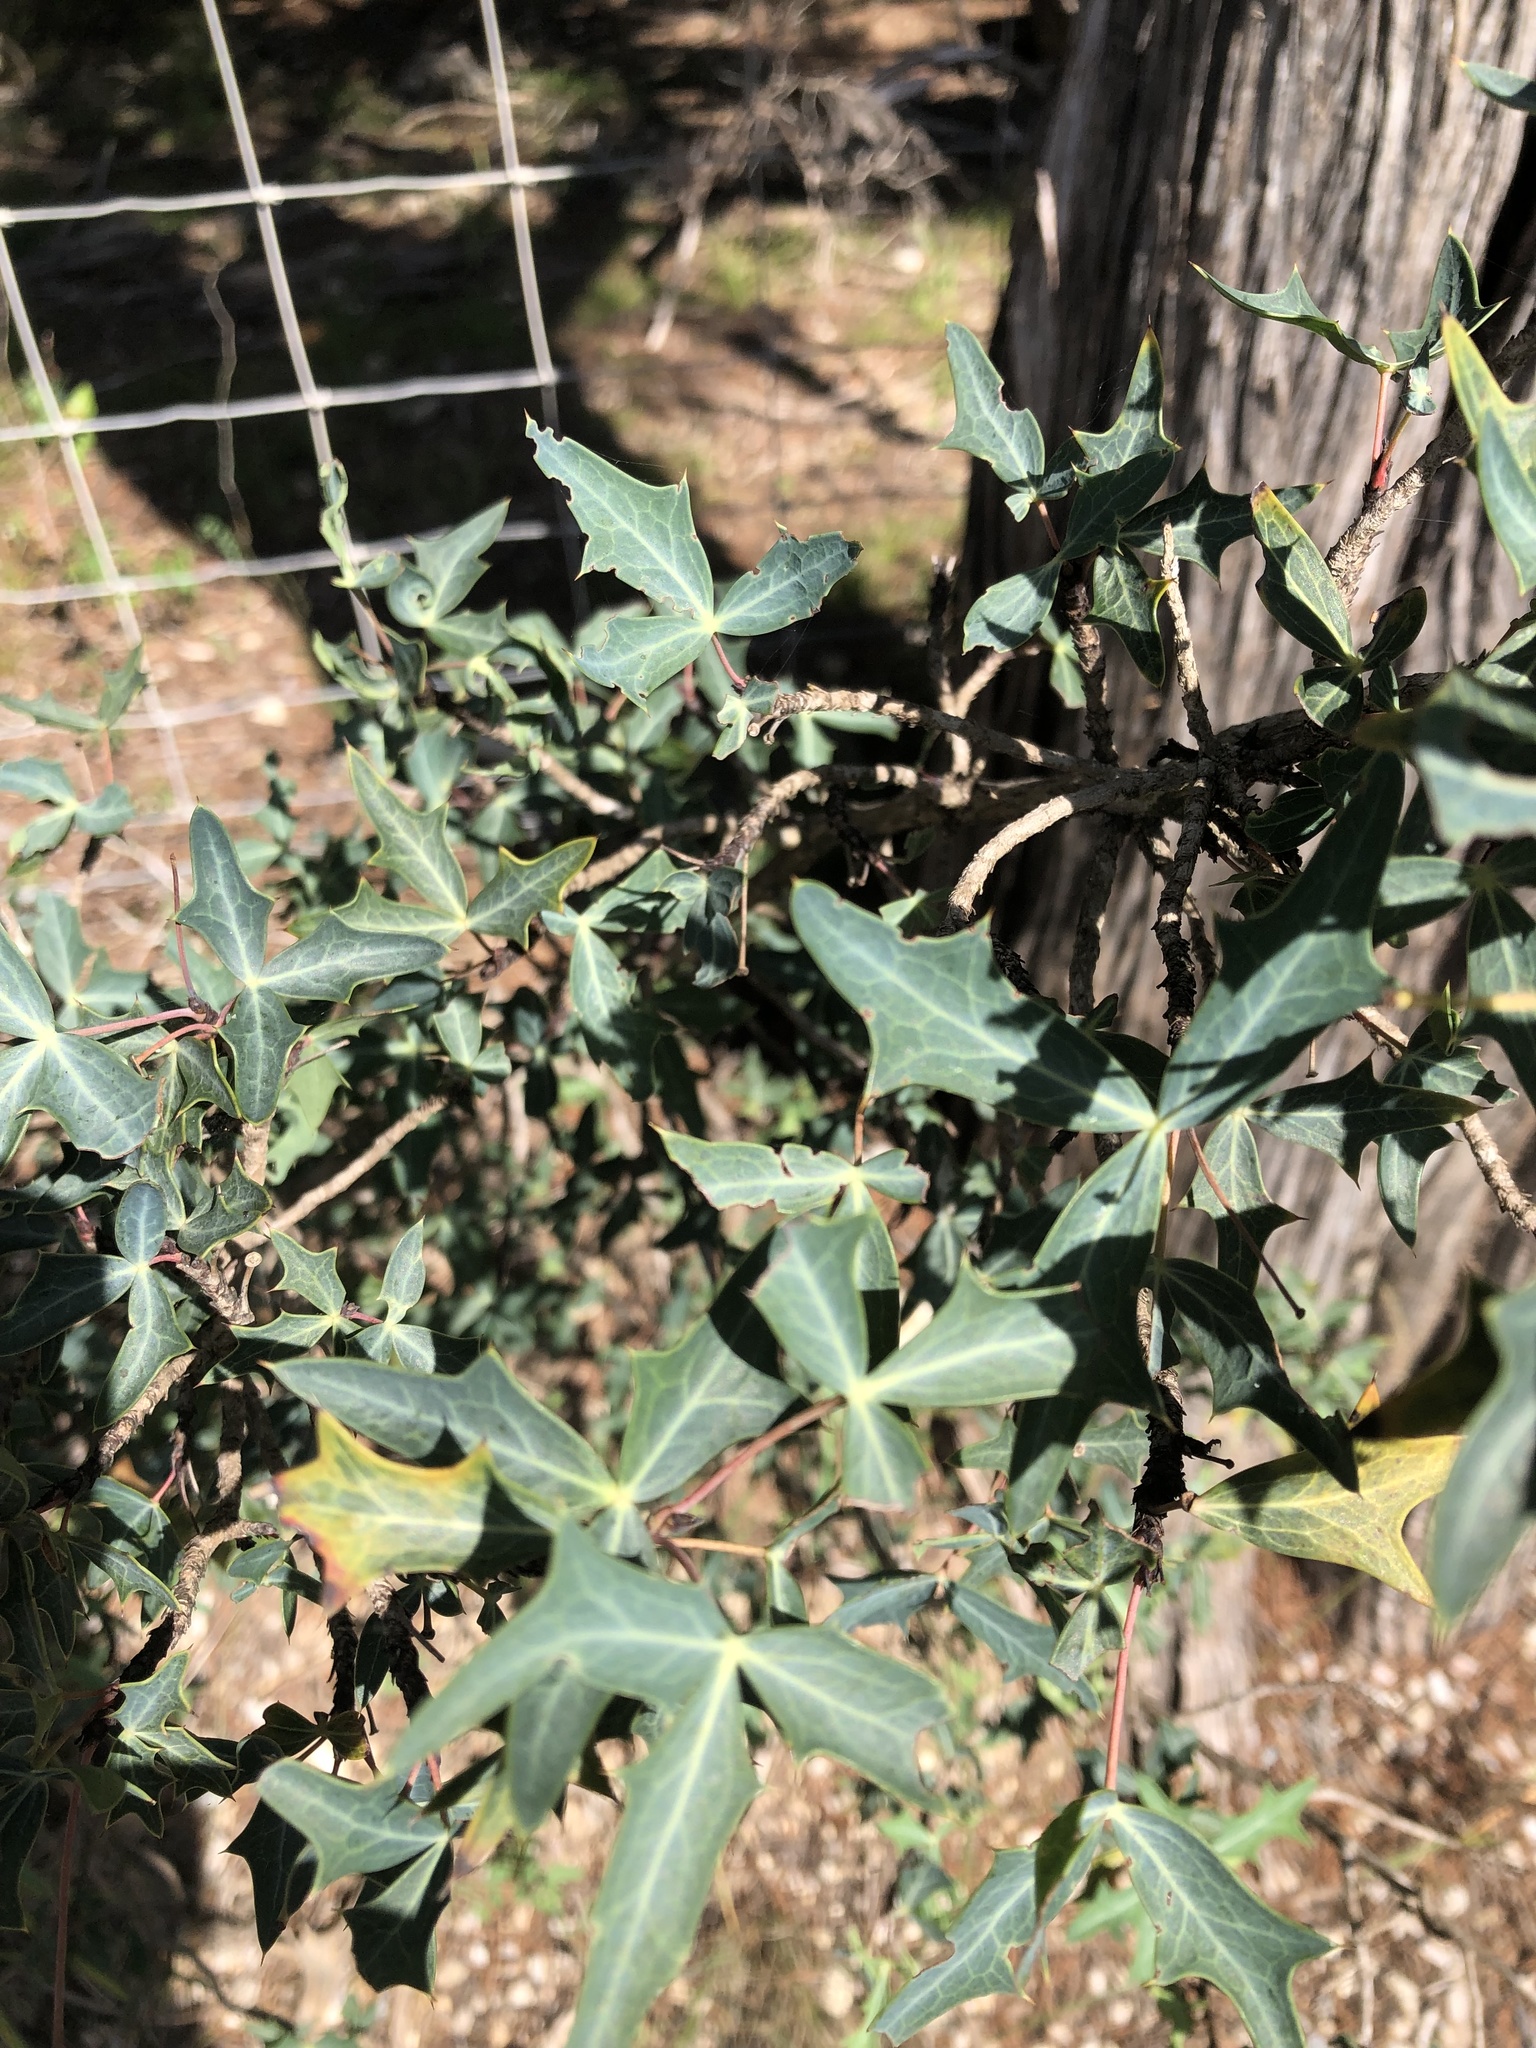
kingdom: Plantae
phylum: Tracheophyta
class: Magnoliopsida
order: Ranunculales
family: Berberidaceae
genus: Alloberberis
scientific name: Alloberberis trifoliolata
